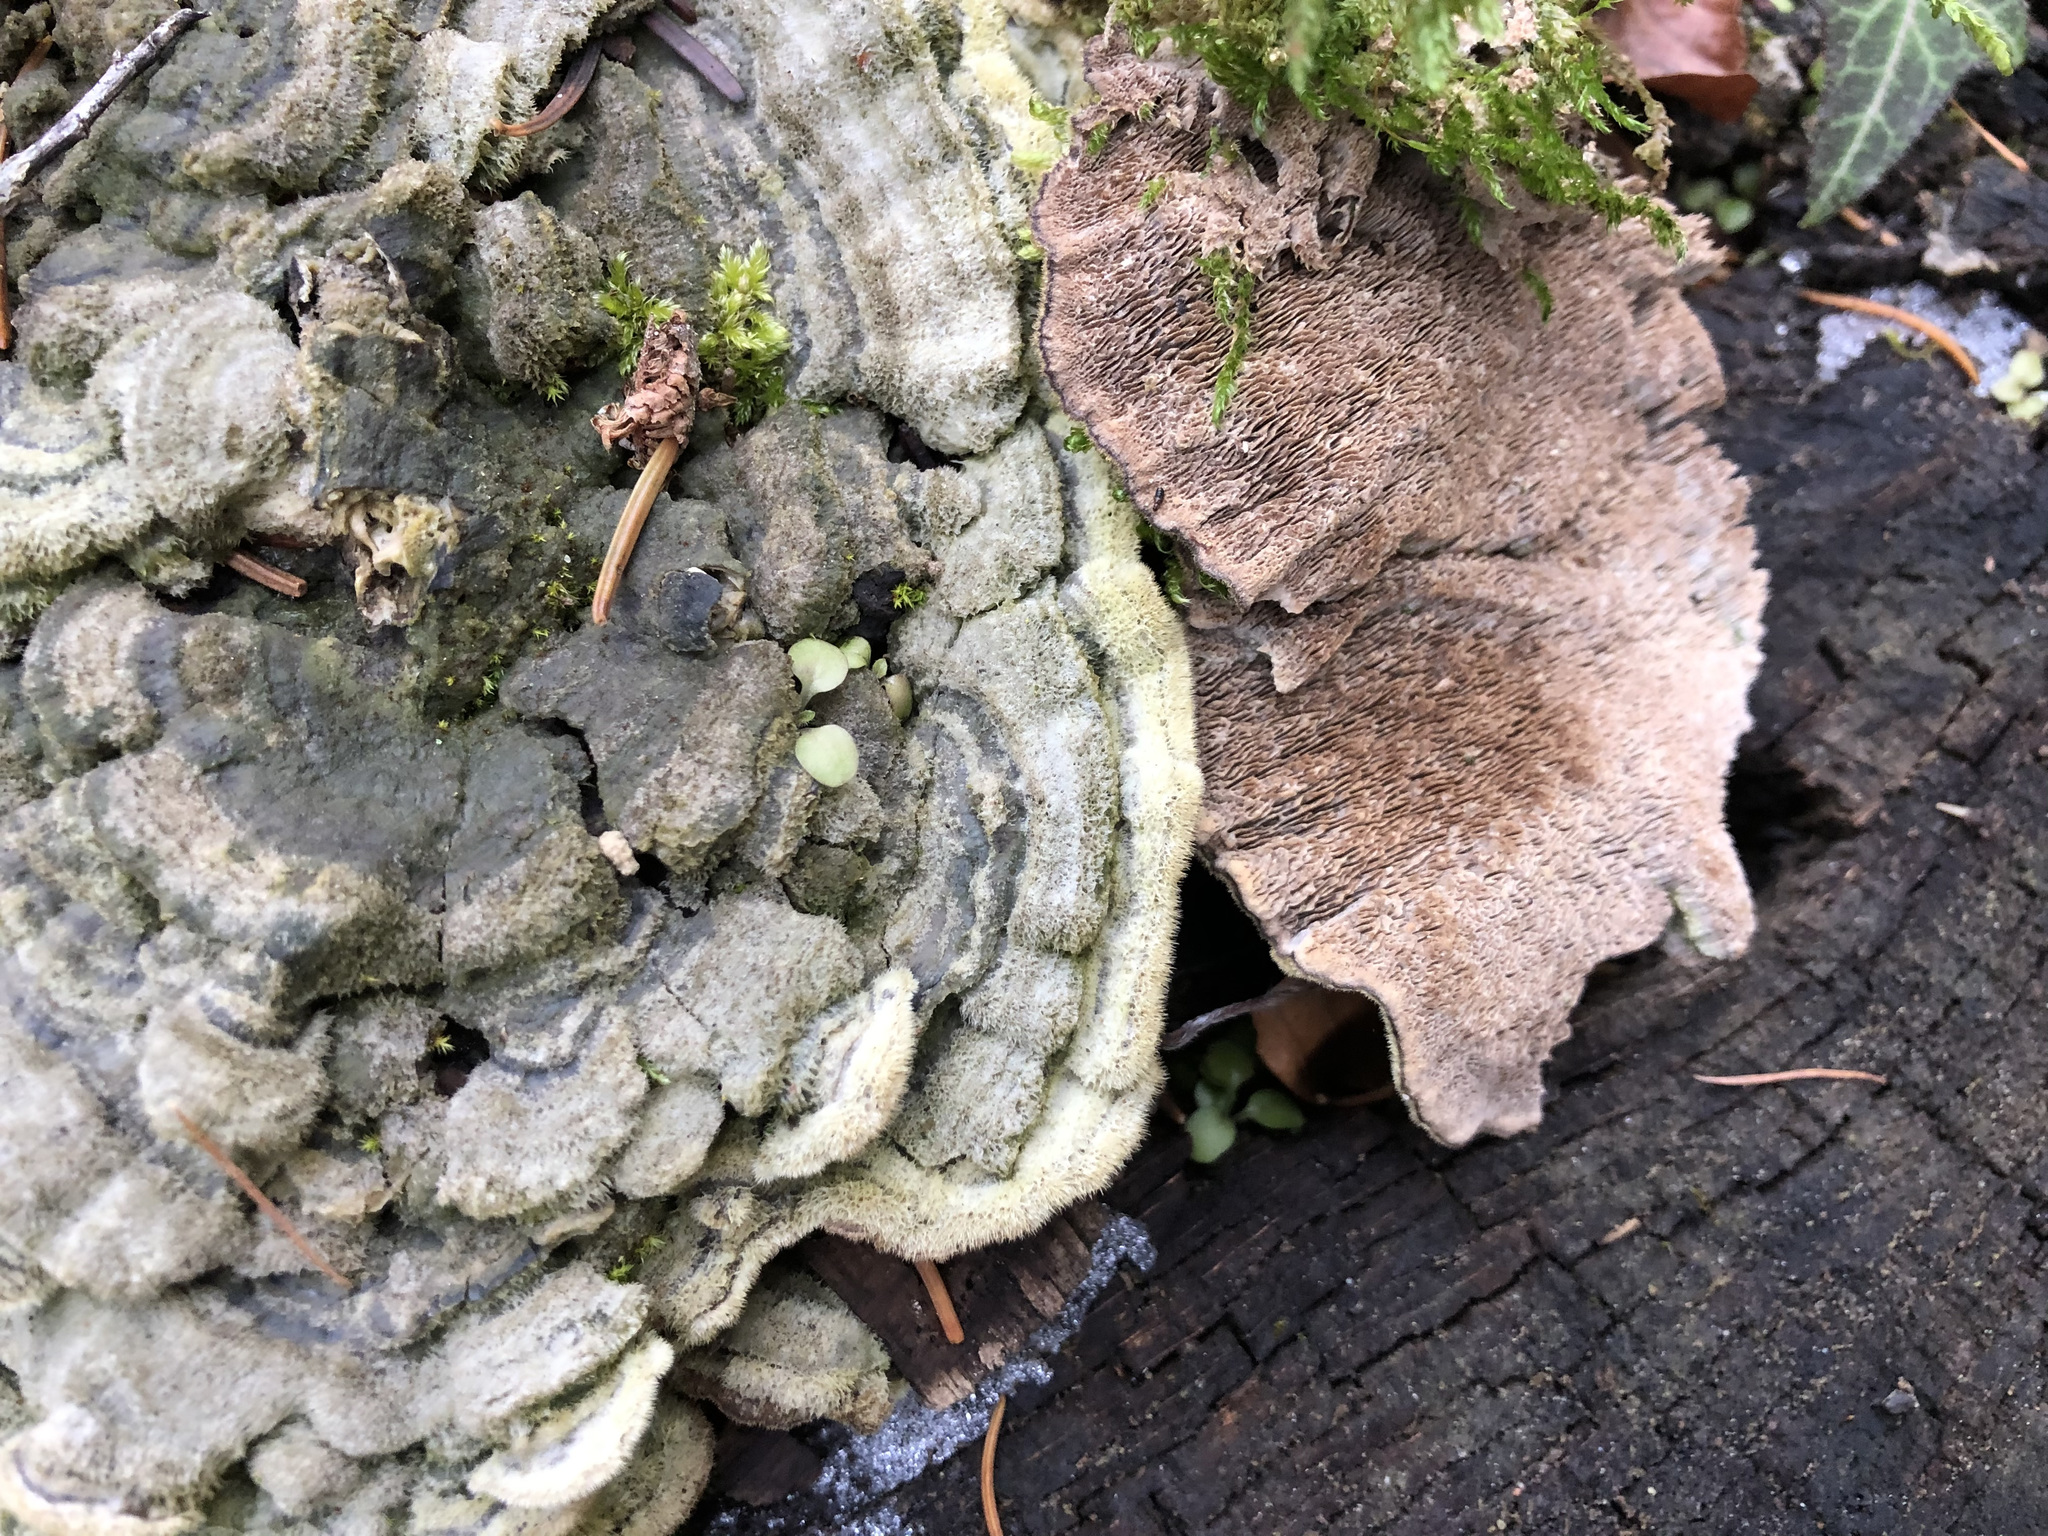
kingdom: Fungi
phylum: Basidiomycota
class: Agaricomycetes
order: Polyporales
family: Cerrenaceae
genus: Cerrena
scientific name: Cerrena unicolor
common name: Mossy maze polypore
